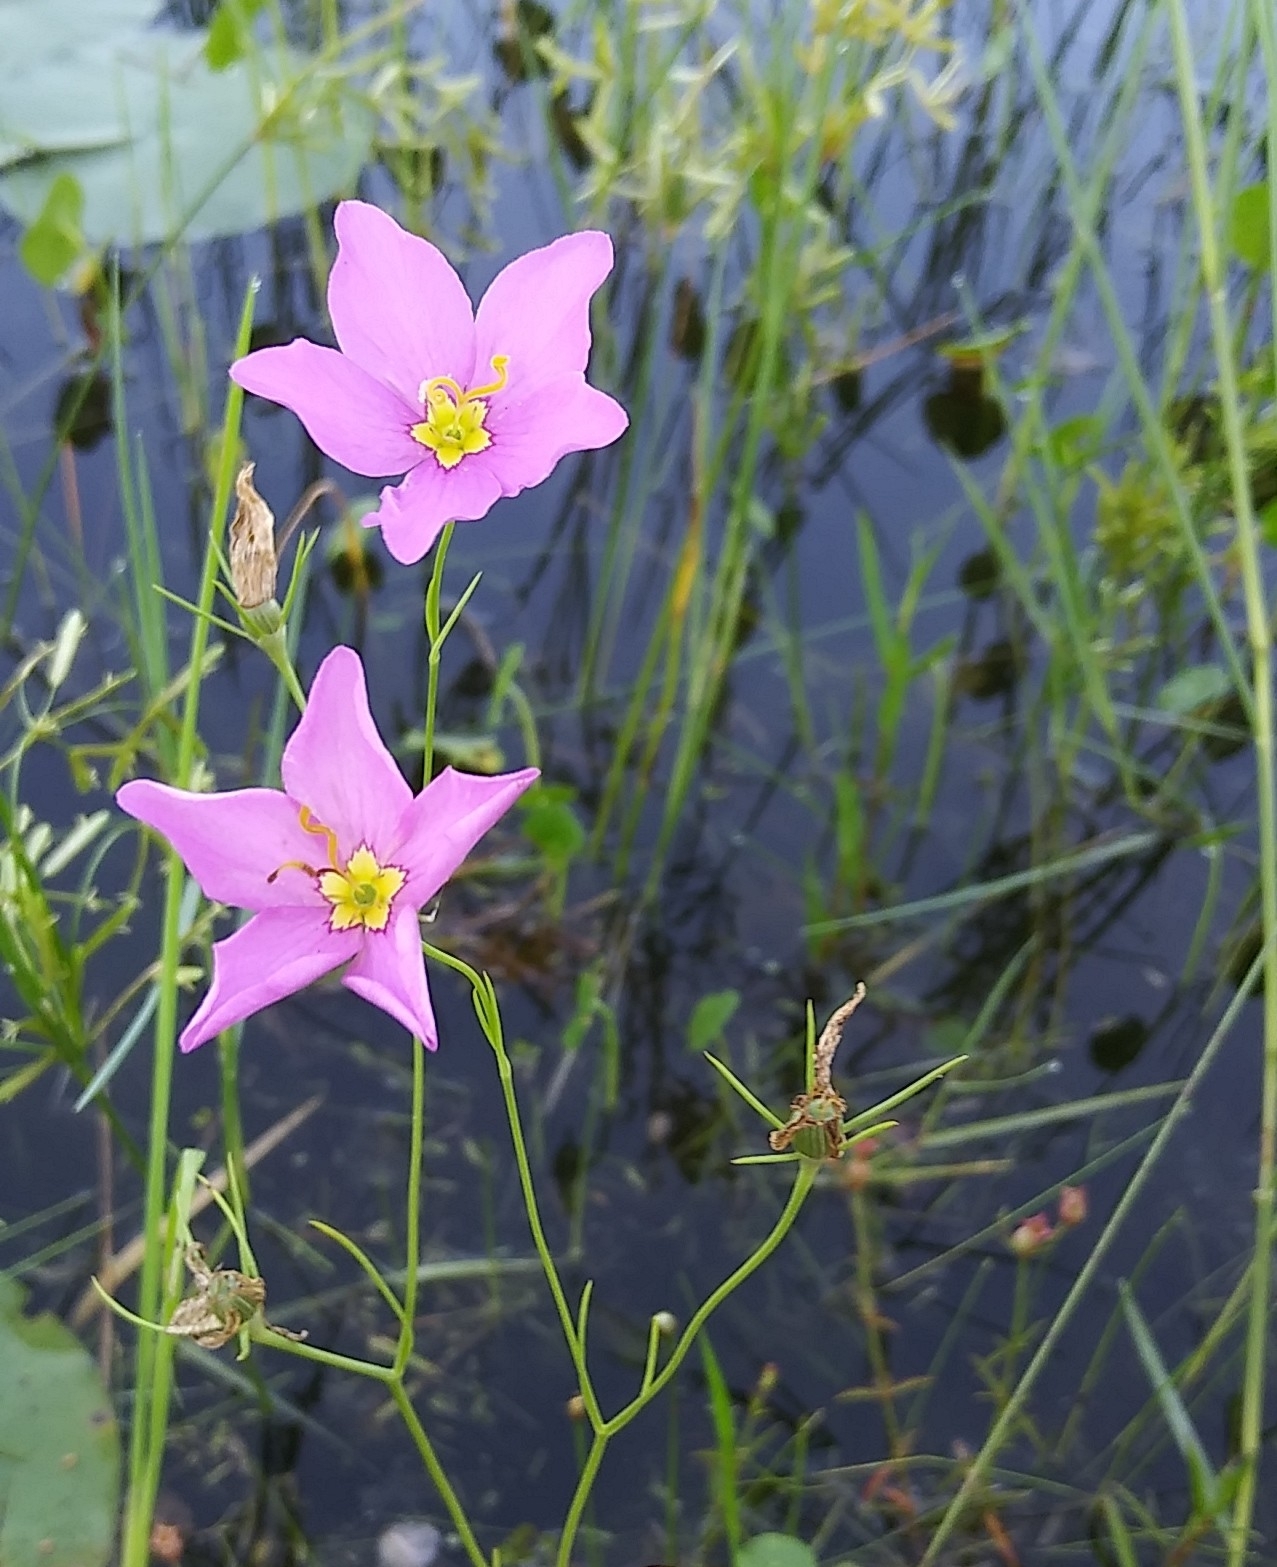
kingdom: Plantae
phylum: Tracheophyta
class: Magnoliopsida
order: Gentianales
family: Gentianaceae
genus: Sabatia
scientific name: Sabatia grandiflora
